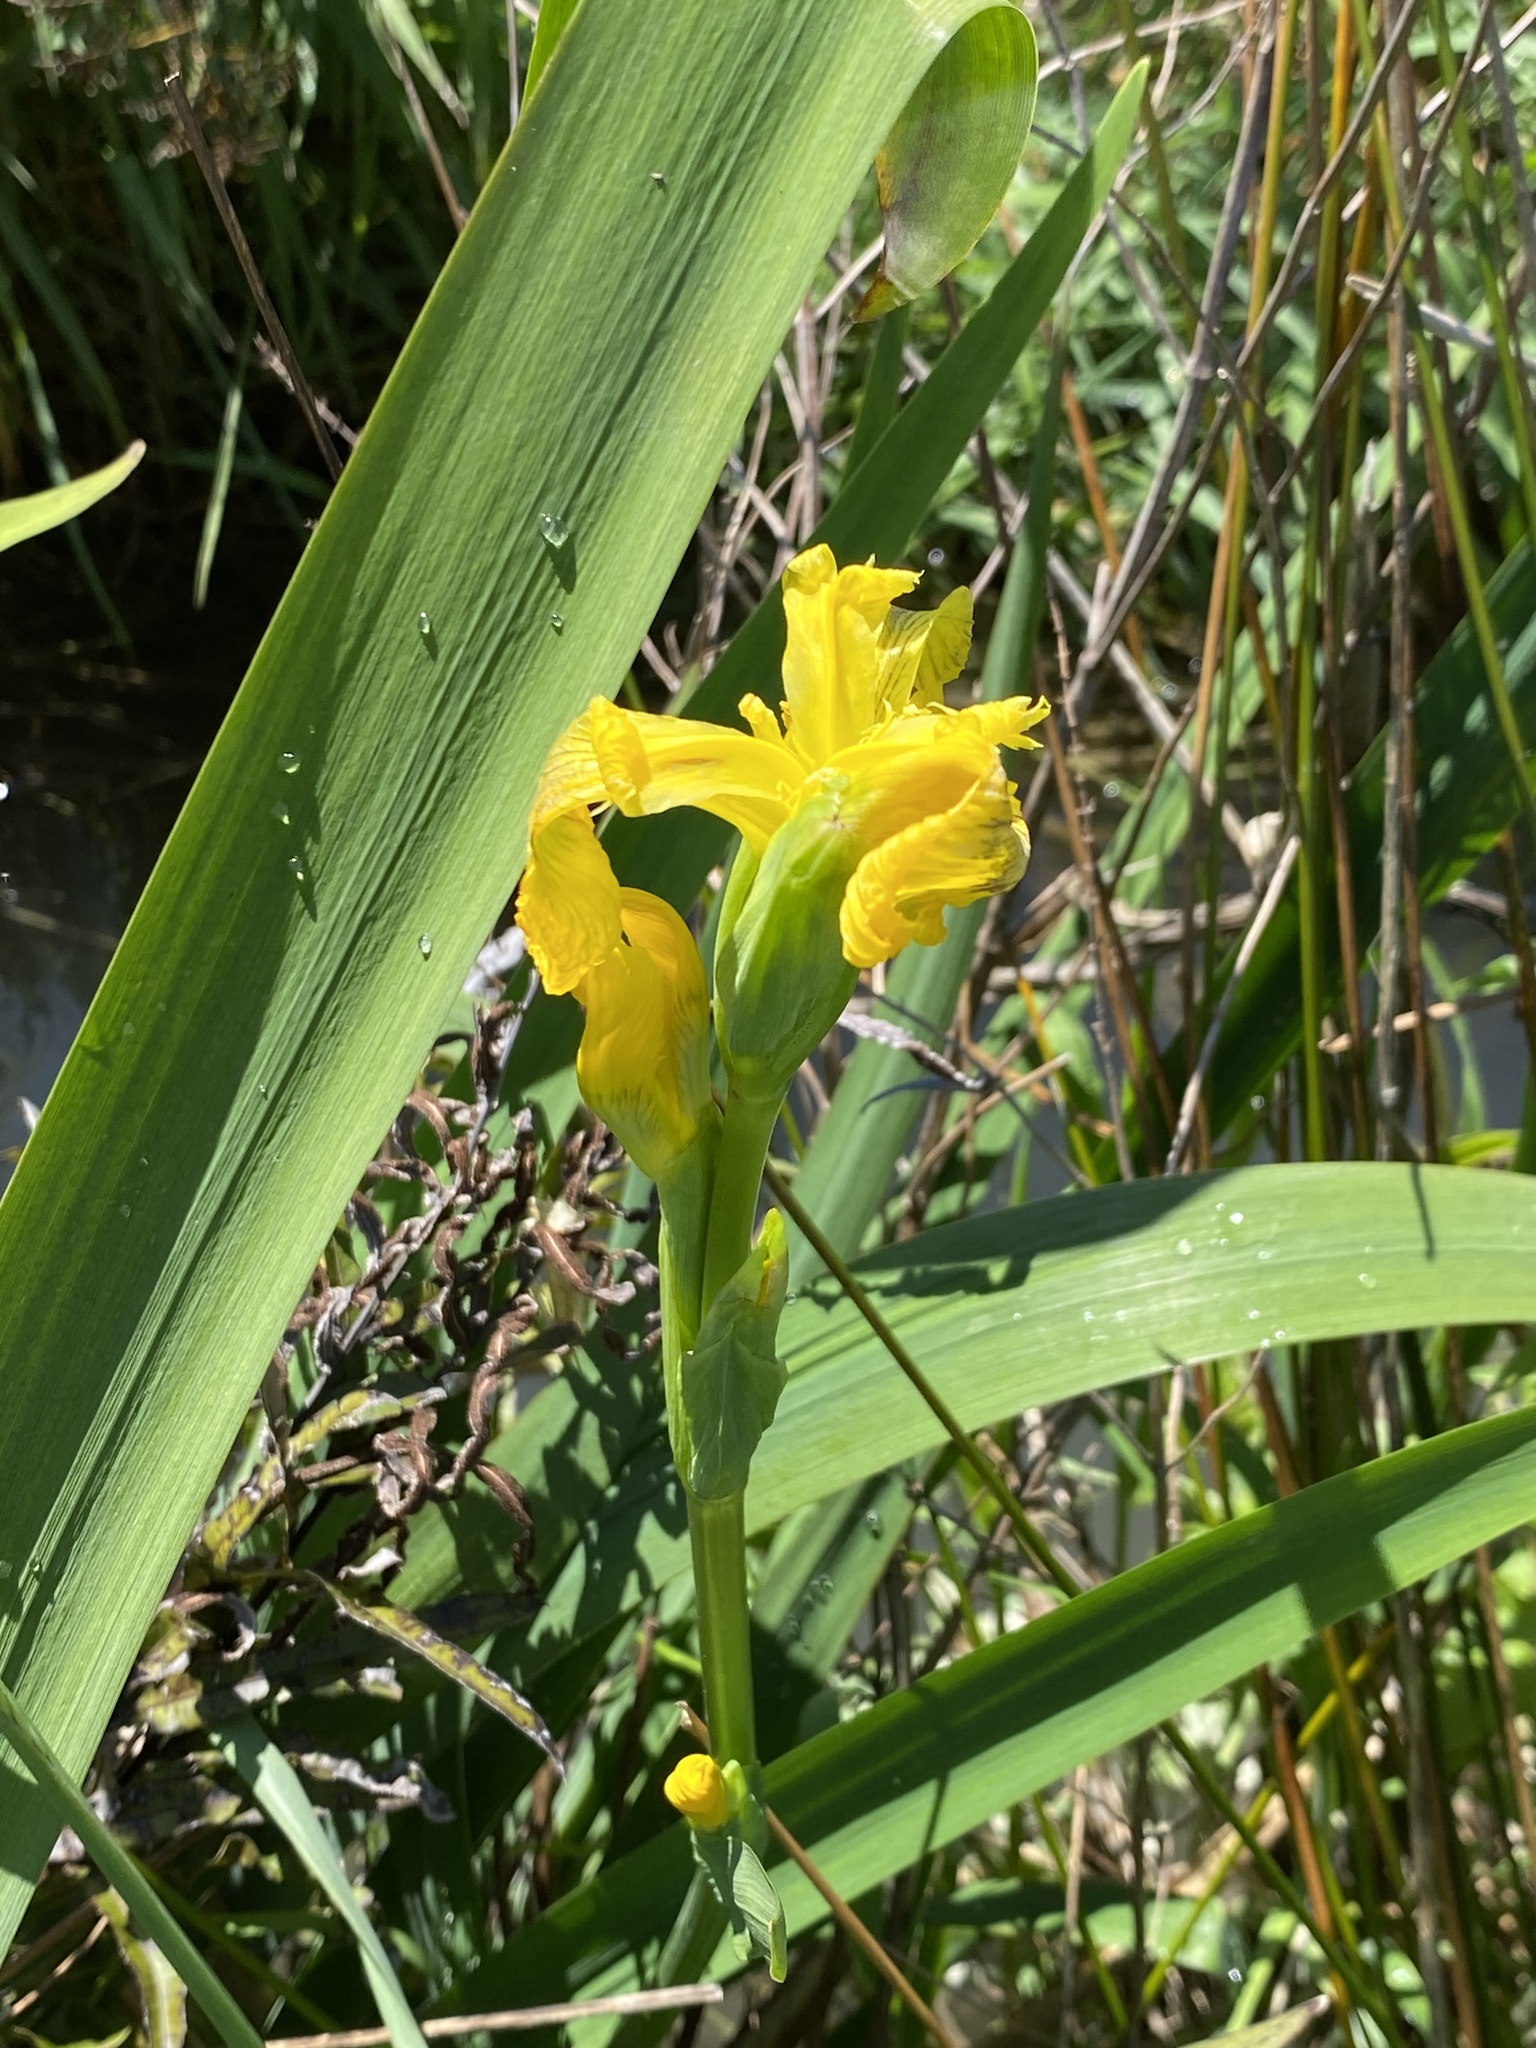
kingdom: Plantae
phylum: Tracheophyta
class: Liliopsida
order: Asparagales
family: Iridaceae
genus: Iris
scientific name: Iris pseudacorus
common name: Yellow flag
